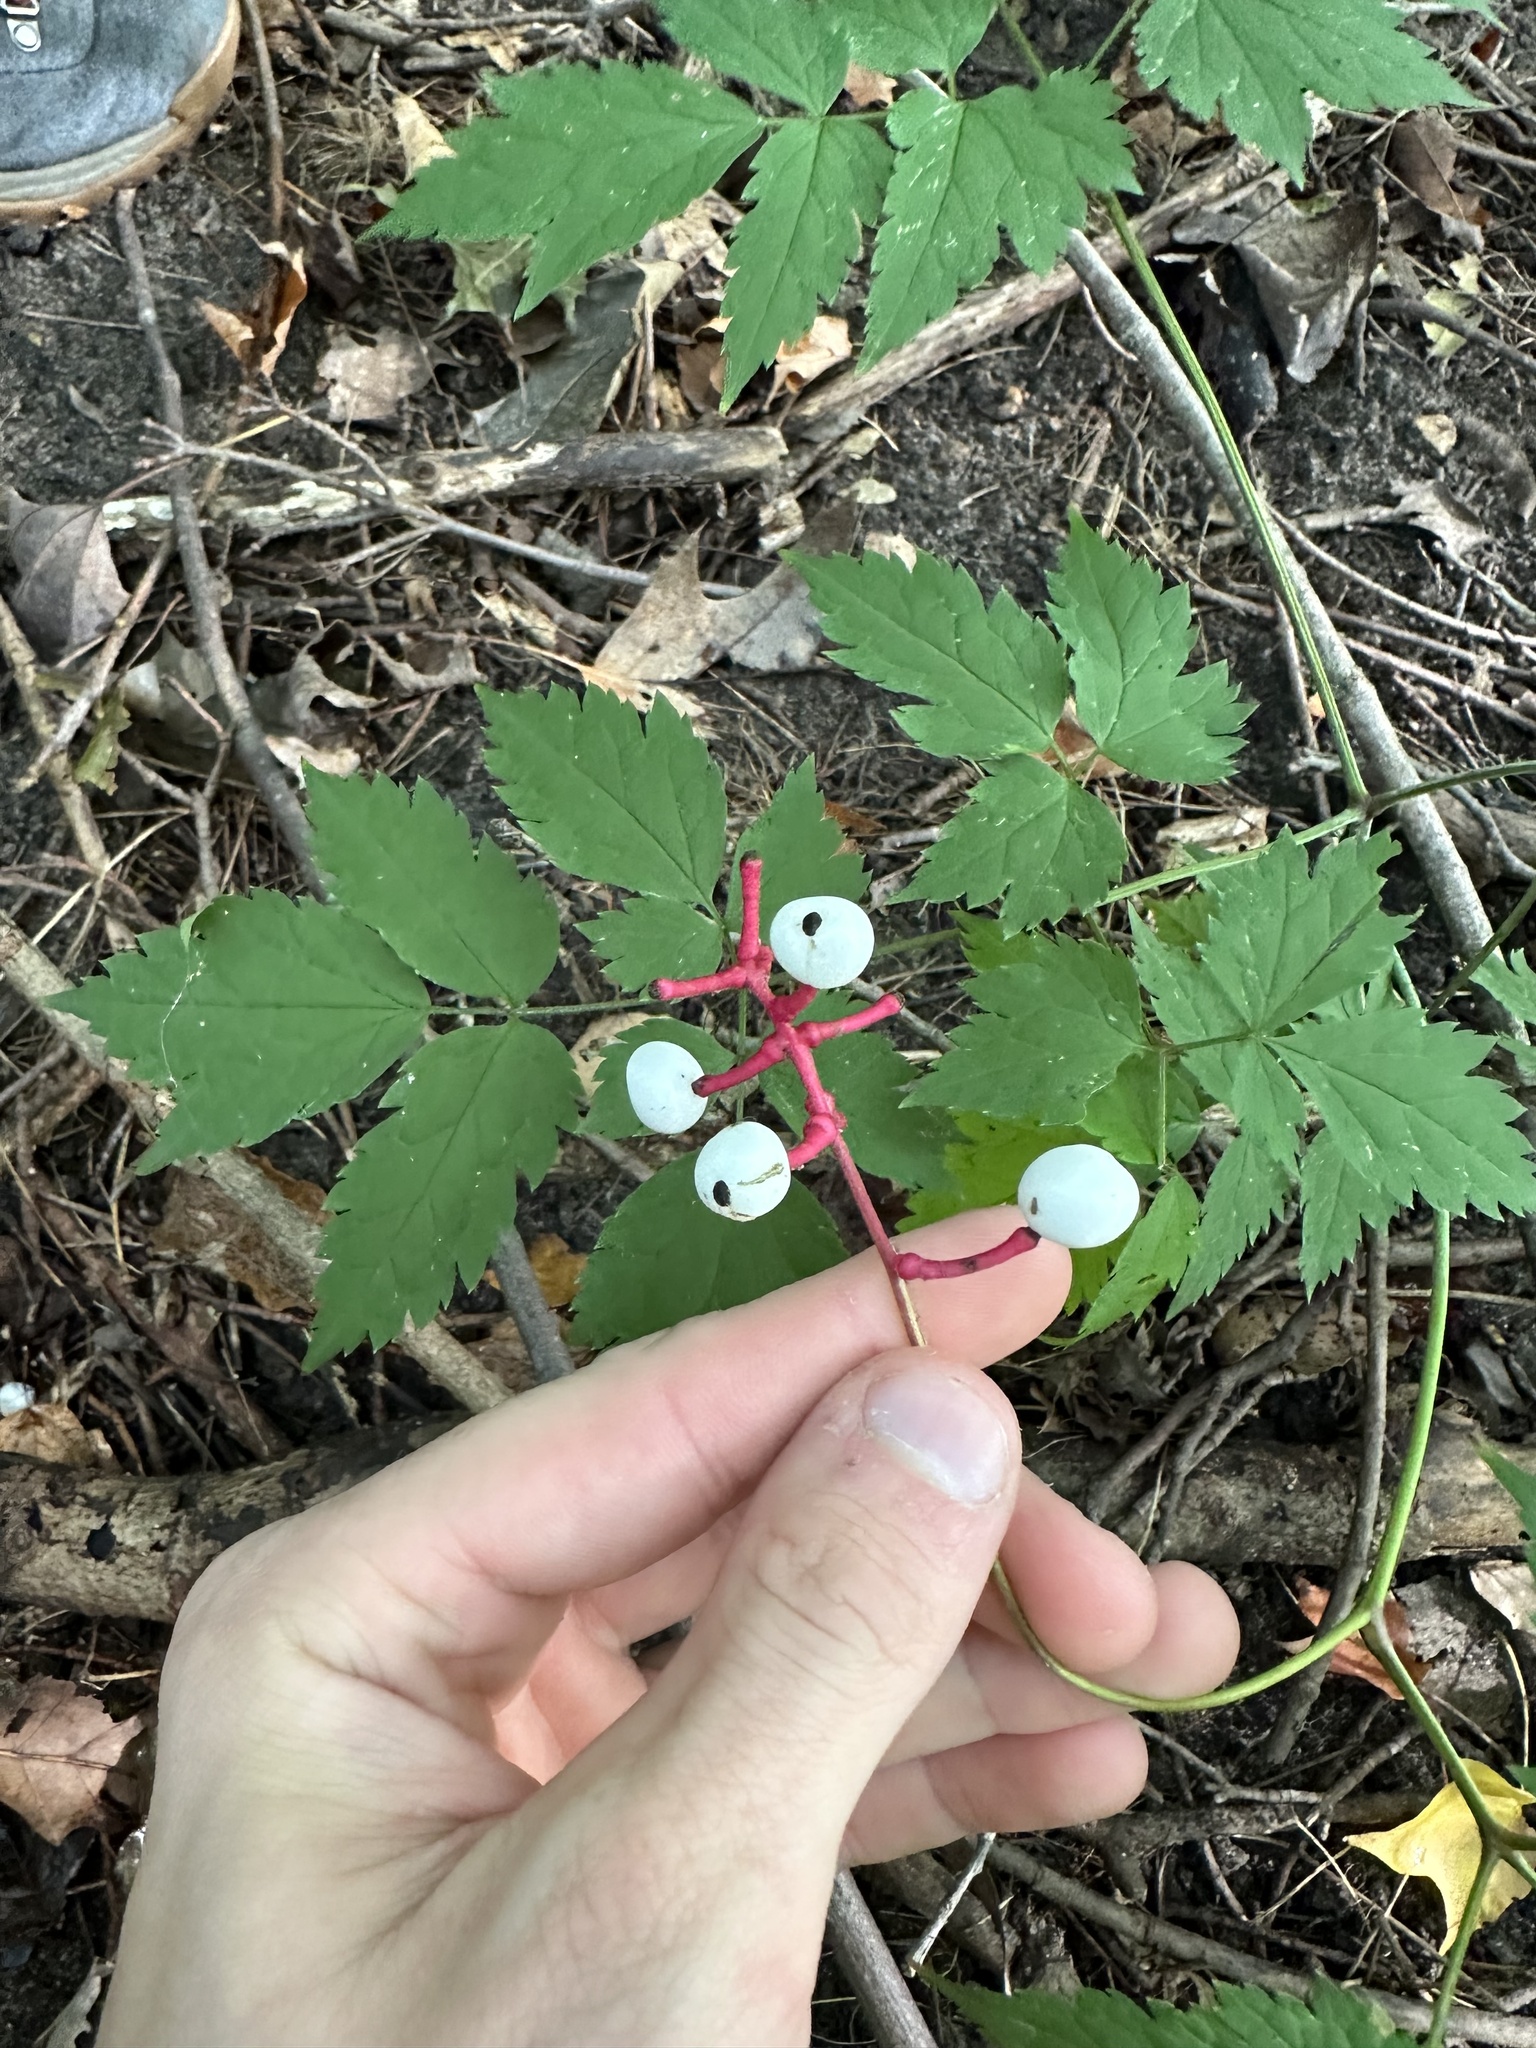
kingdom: Plantae
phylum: Tracheophyta
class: Magnoliopsida
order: Ranunculales
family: Ranunculaceae
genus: Actaea
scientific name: Actaea pachypoda
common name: Doll's-eyes
